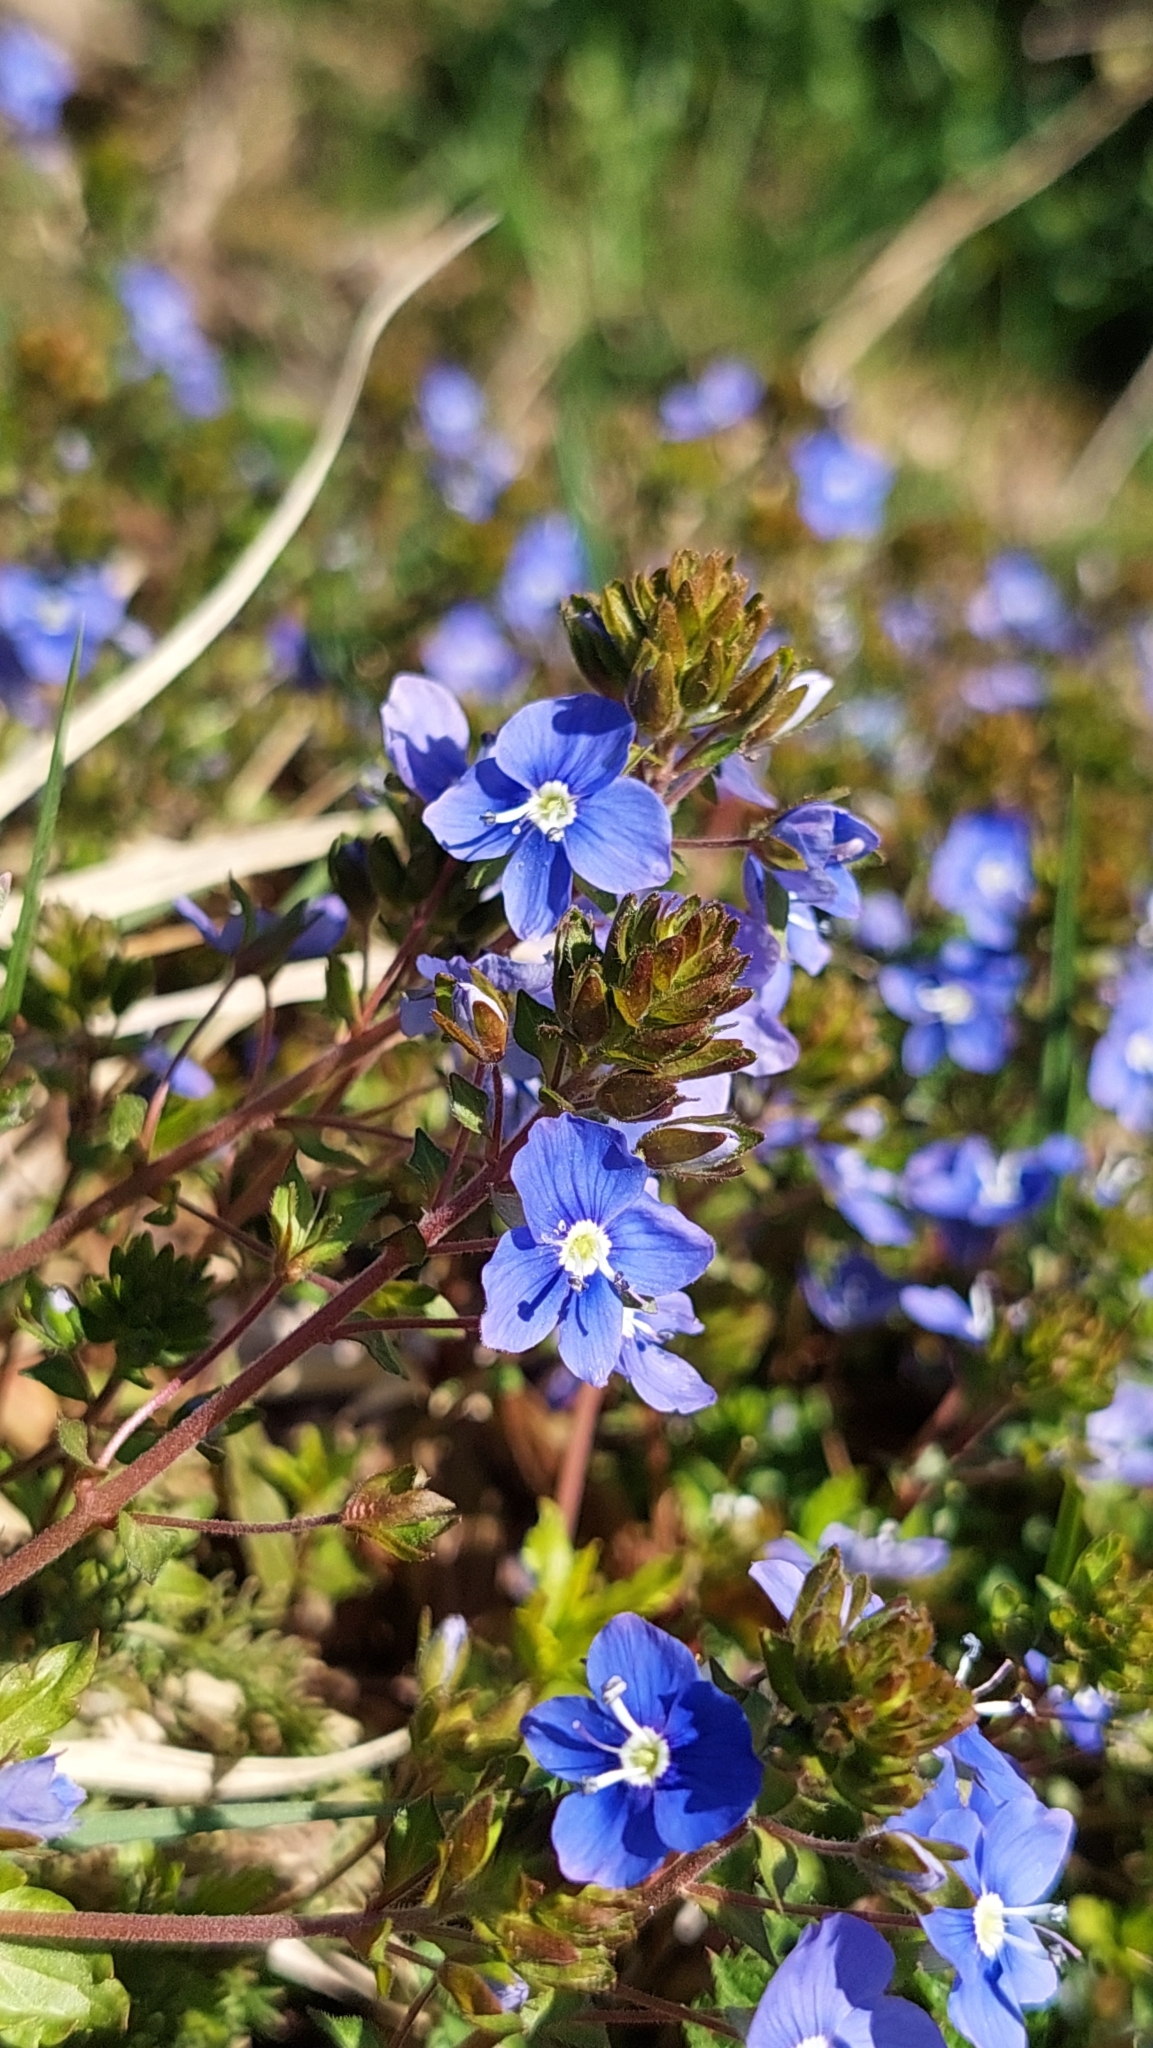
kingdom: Plantae
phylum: Tracheophyta
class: Magnoliopsida
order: Lamiales
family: Plantaginaceae
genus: Veronica
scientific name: Veronica
